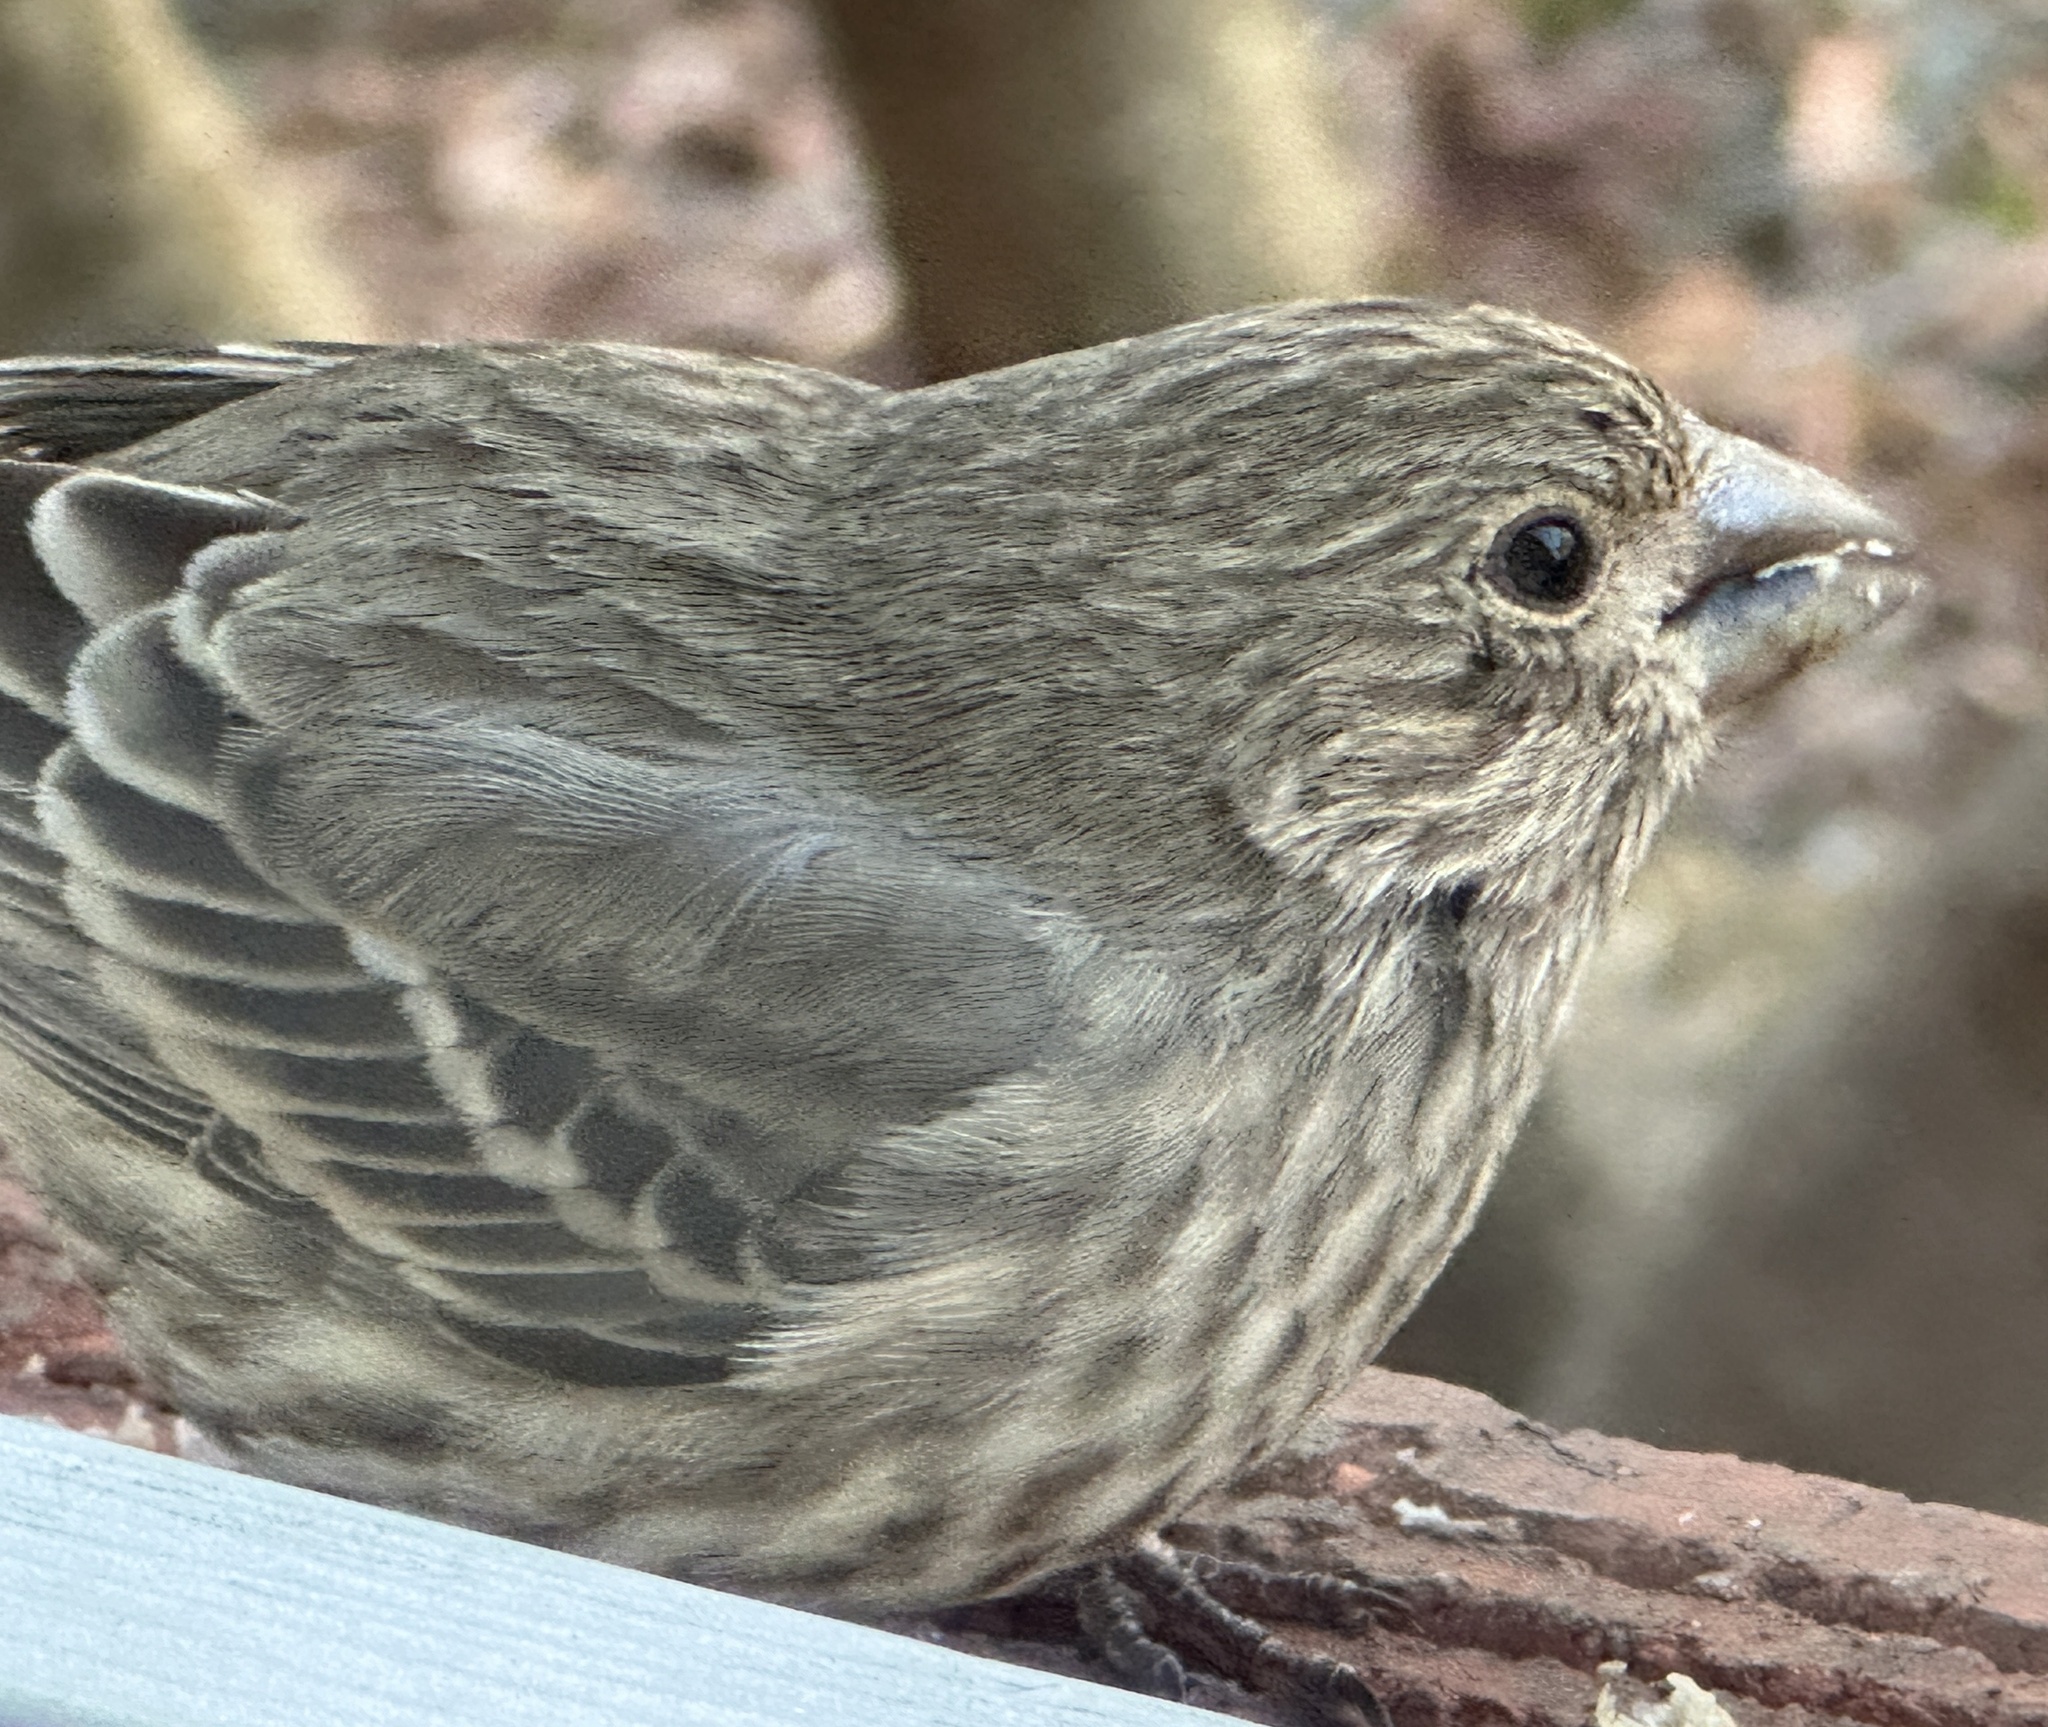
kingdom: Animalia
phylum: Chordata
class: Aves
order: Passeriformes
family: Fringillidae
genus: Haemorhous
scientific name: Haemorhous mexicanus
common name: House finch
